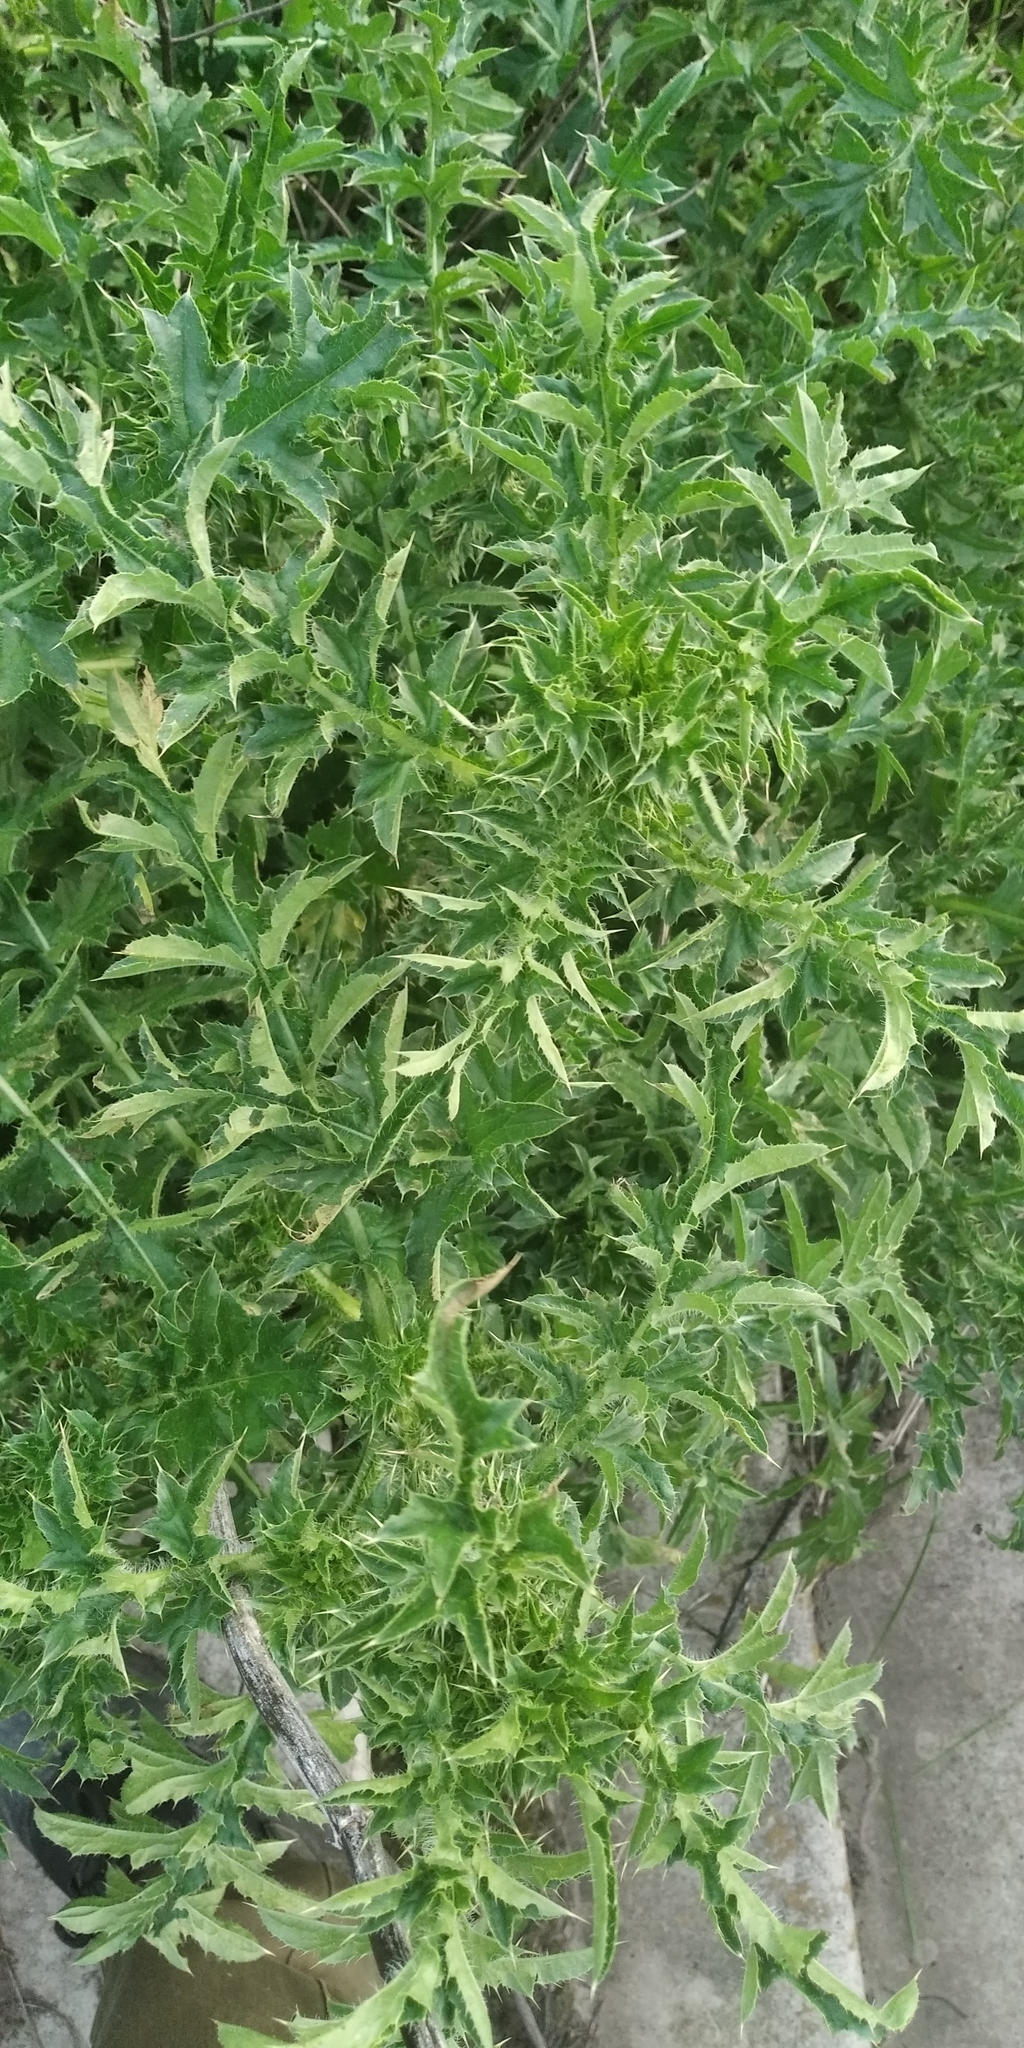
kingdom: Plantae
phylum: Tracheophyta
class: Magnoliopsida
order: Asterales
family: Asteraceae
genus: Carduus
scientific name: Carduus acanthoides
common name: Plumeless thistle
